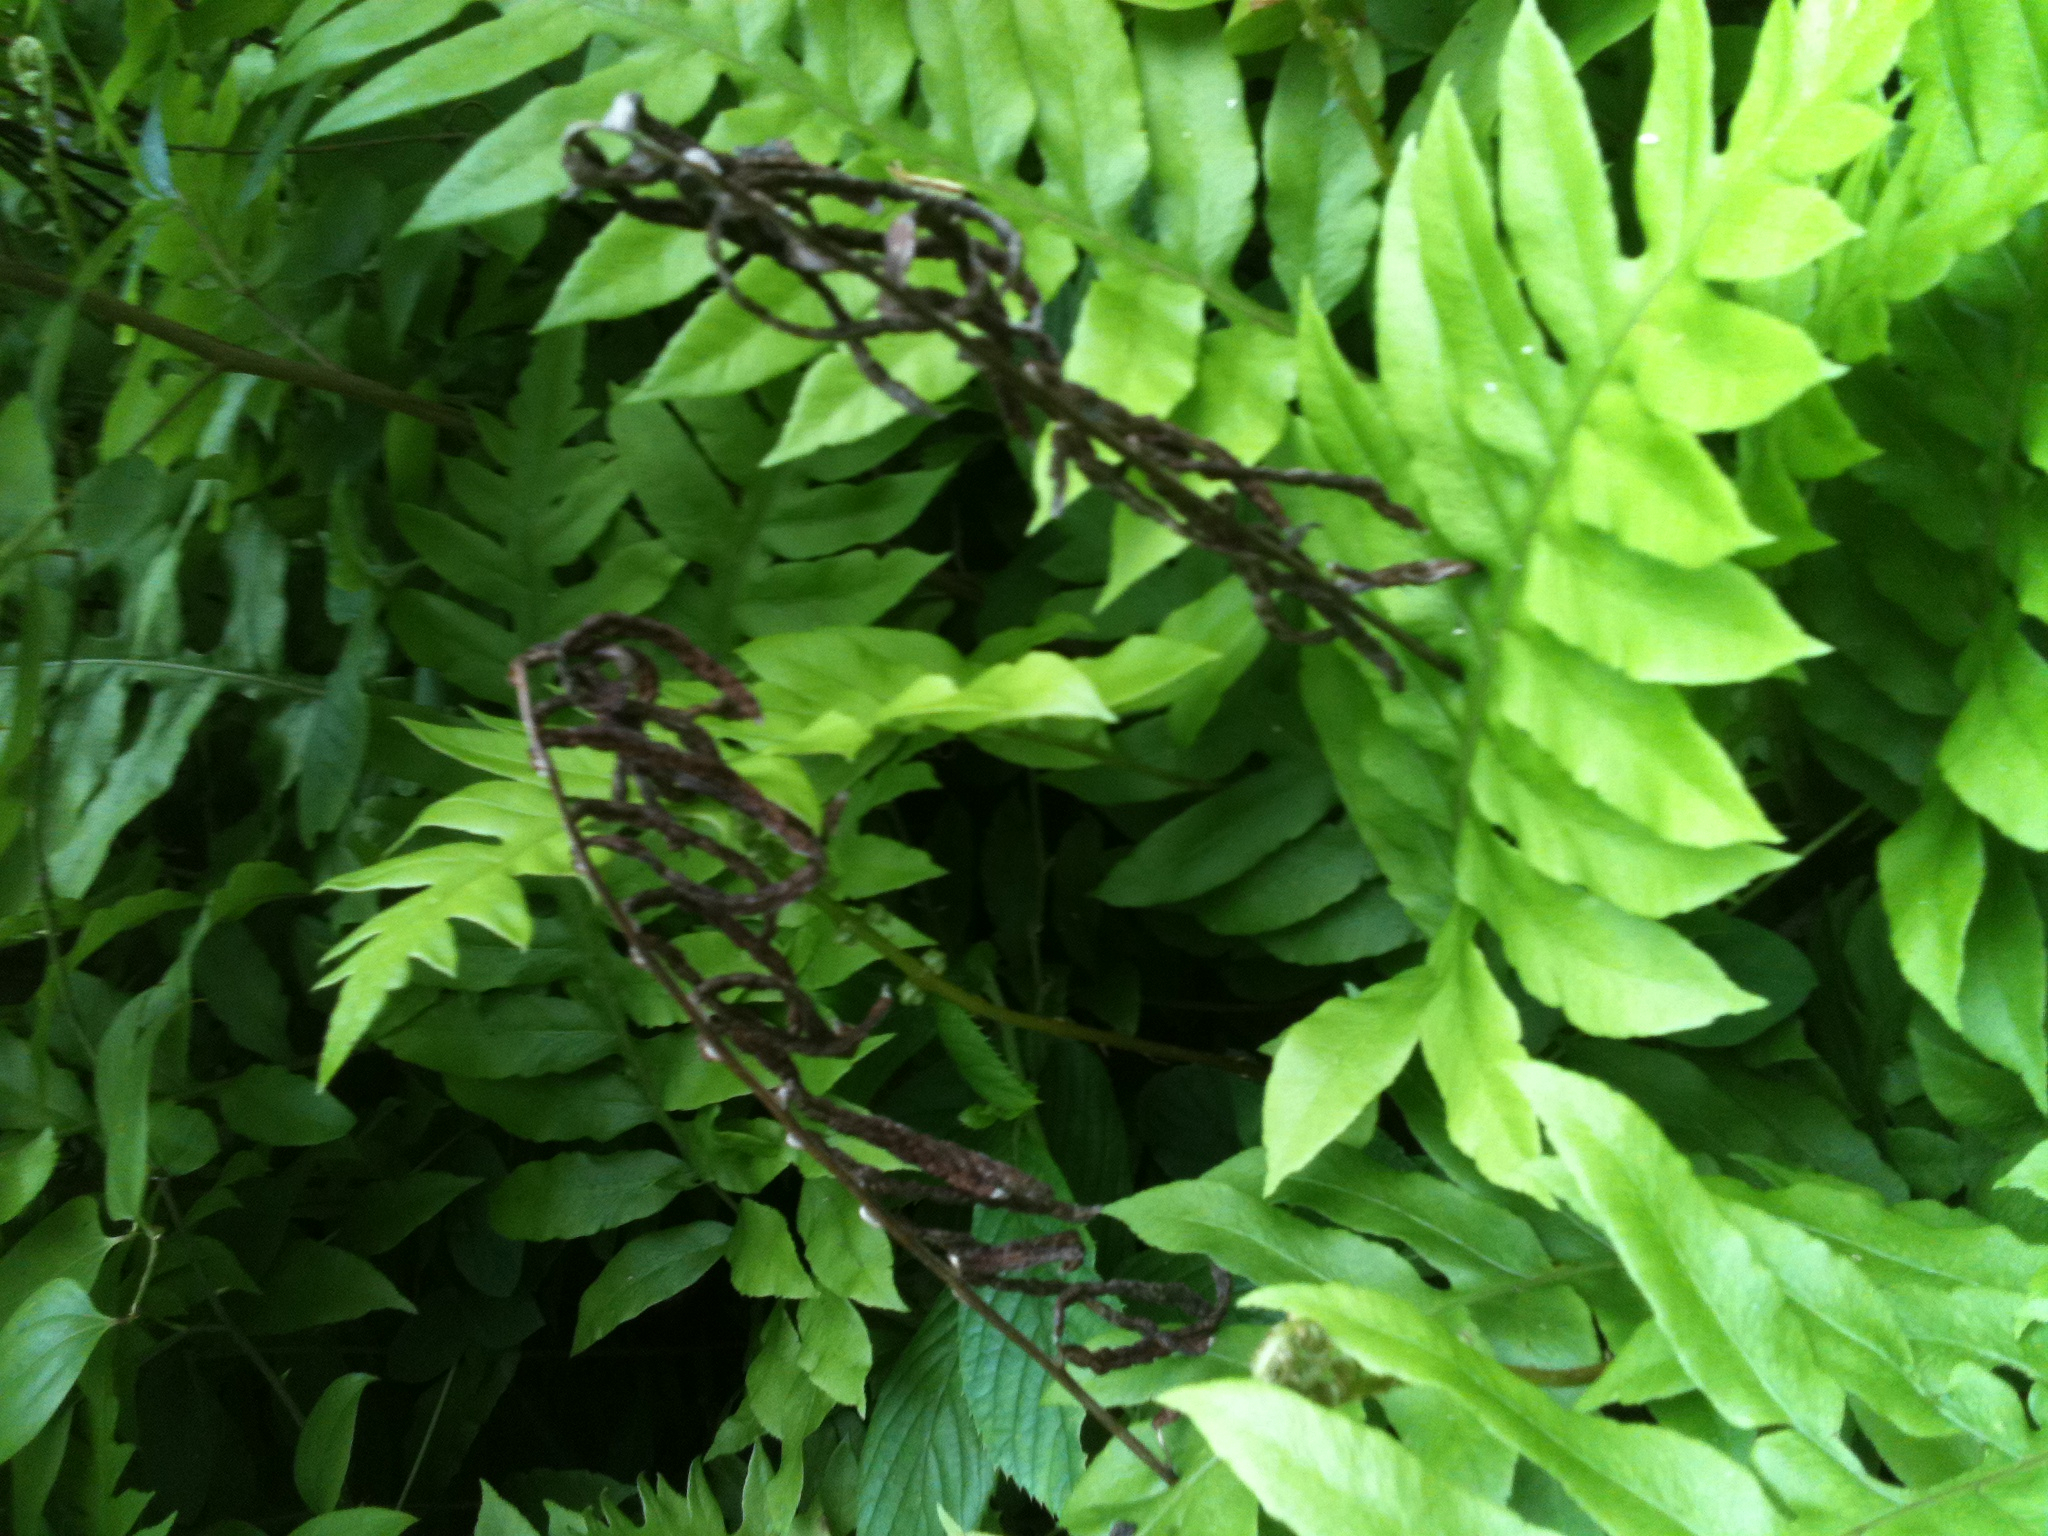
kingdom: Plantae
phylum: Tracheophyta
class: Polypodiopsida
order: Polypodiales
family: Blechnaceae
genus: Lorinseria
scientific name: Lorinseria areolata
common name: Dwarf chain fern
